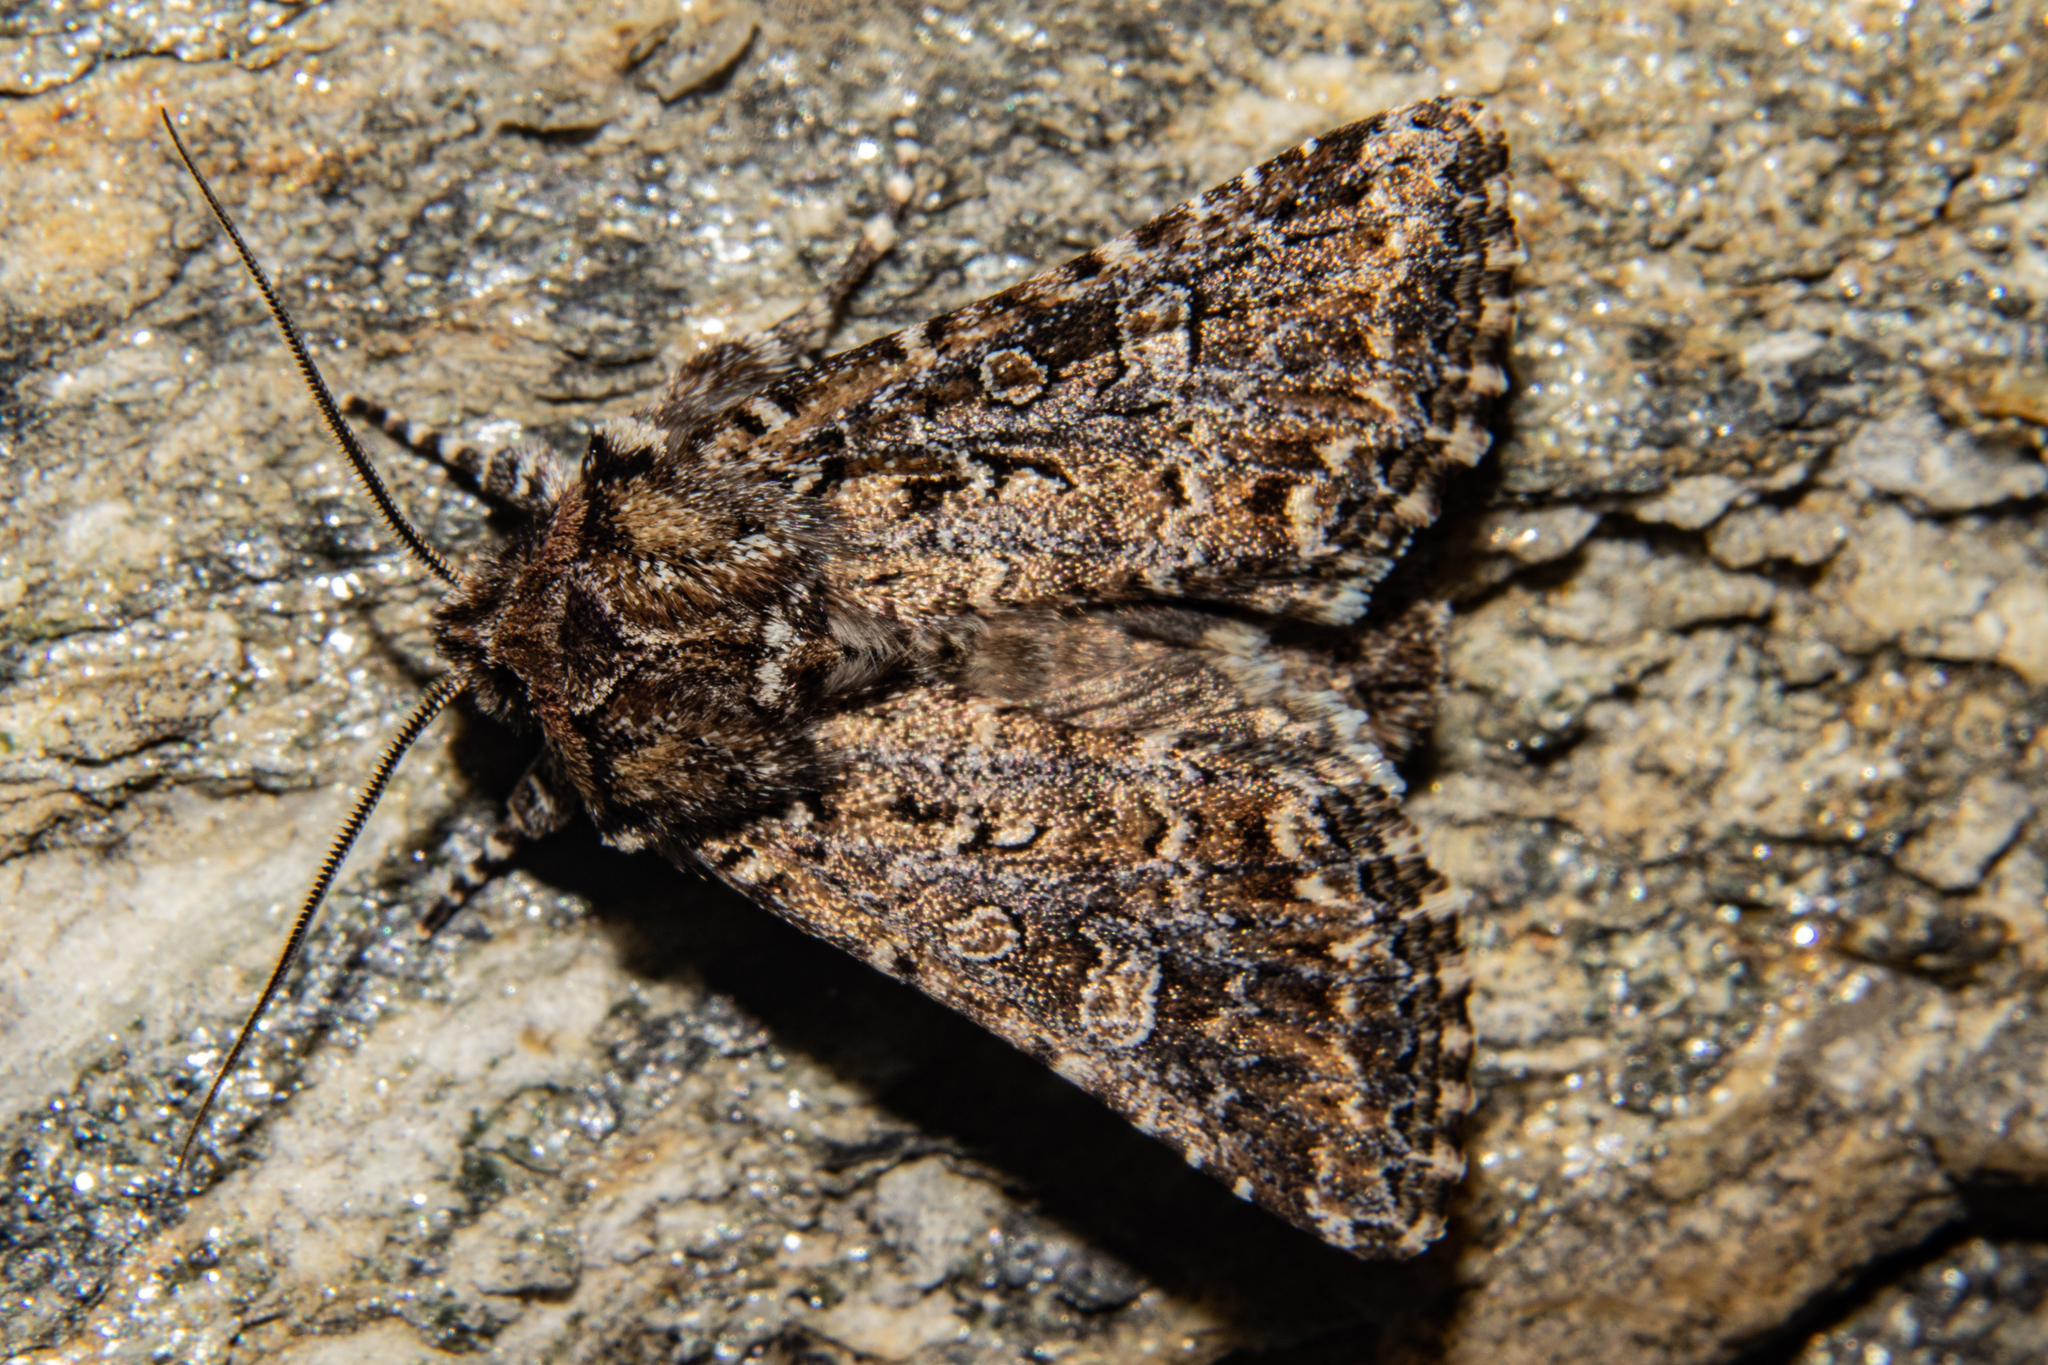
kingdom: Animalia
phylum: Arthropoda
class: Insecta
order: Lepidoptera
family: Noctuidae
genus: Ichneutica
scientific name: Ichneutica lithias
